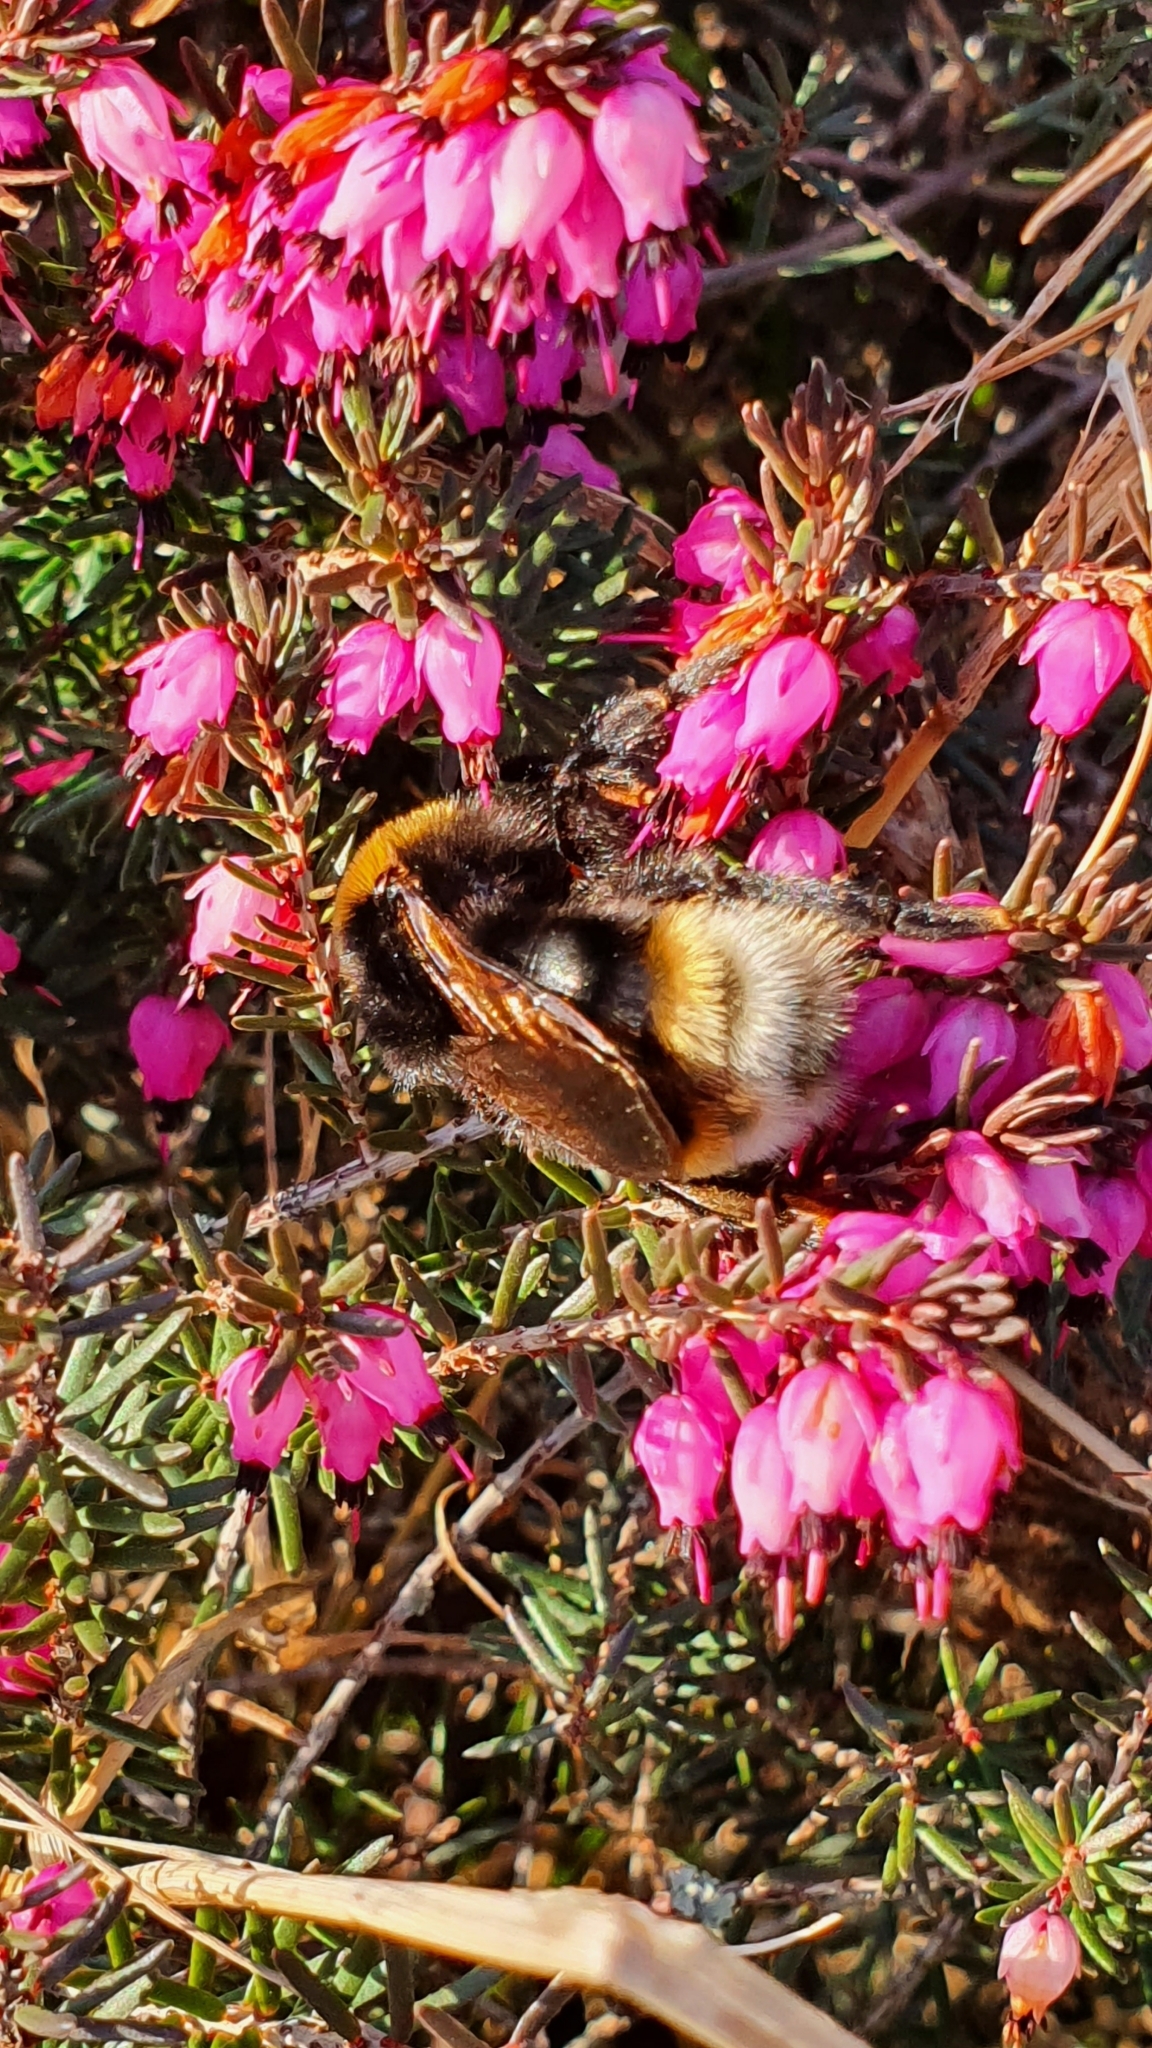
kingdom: Animalia
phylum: Arthropoda
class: Insecta
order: Hymenoptera
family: Apidae
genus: Bombus
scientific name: Bombus vestalis
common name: Vestal cuckoo bee
